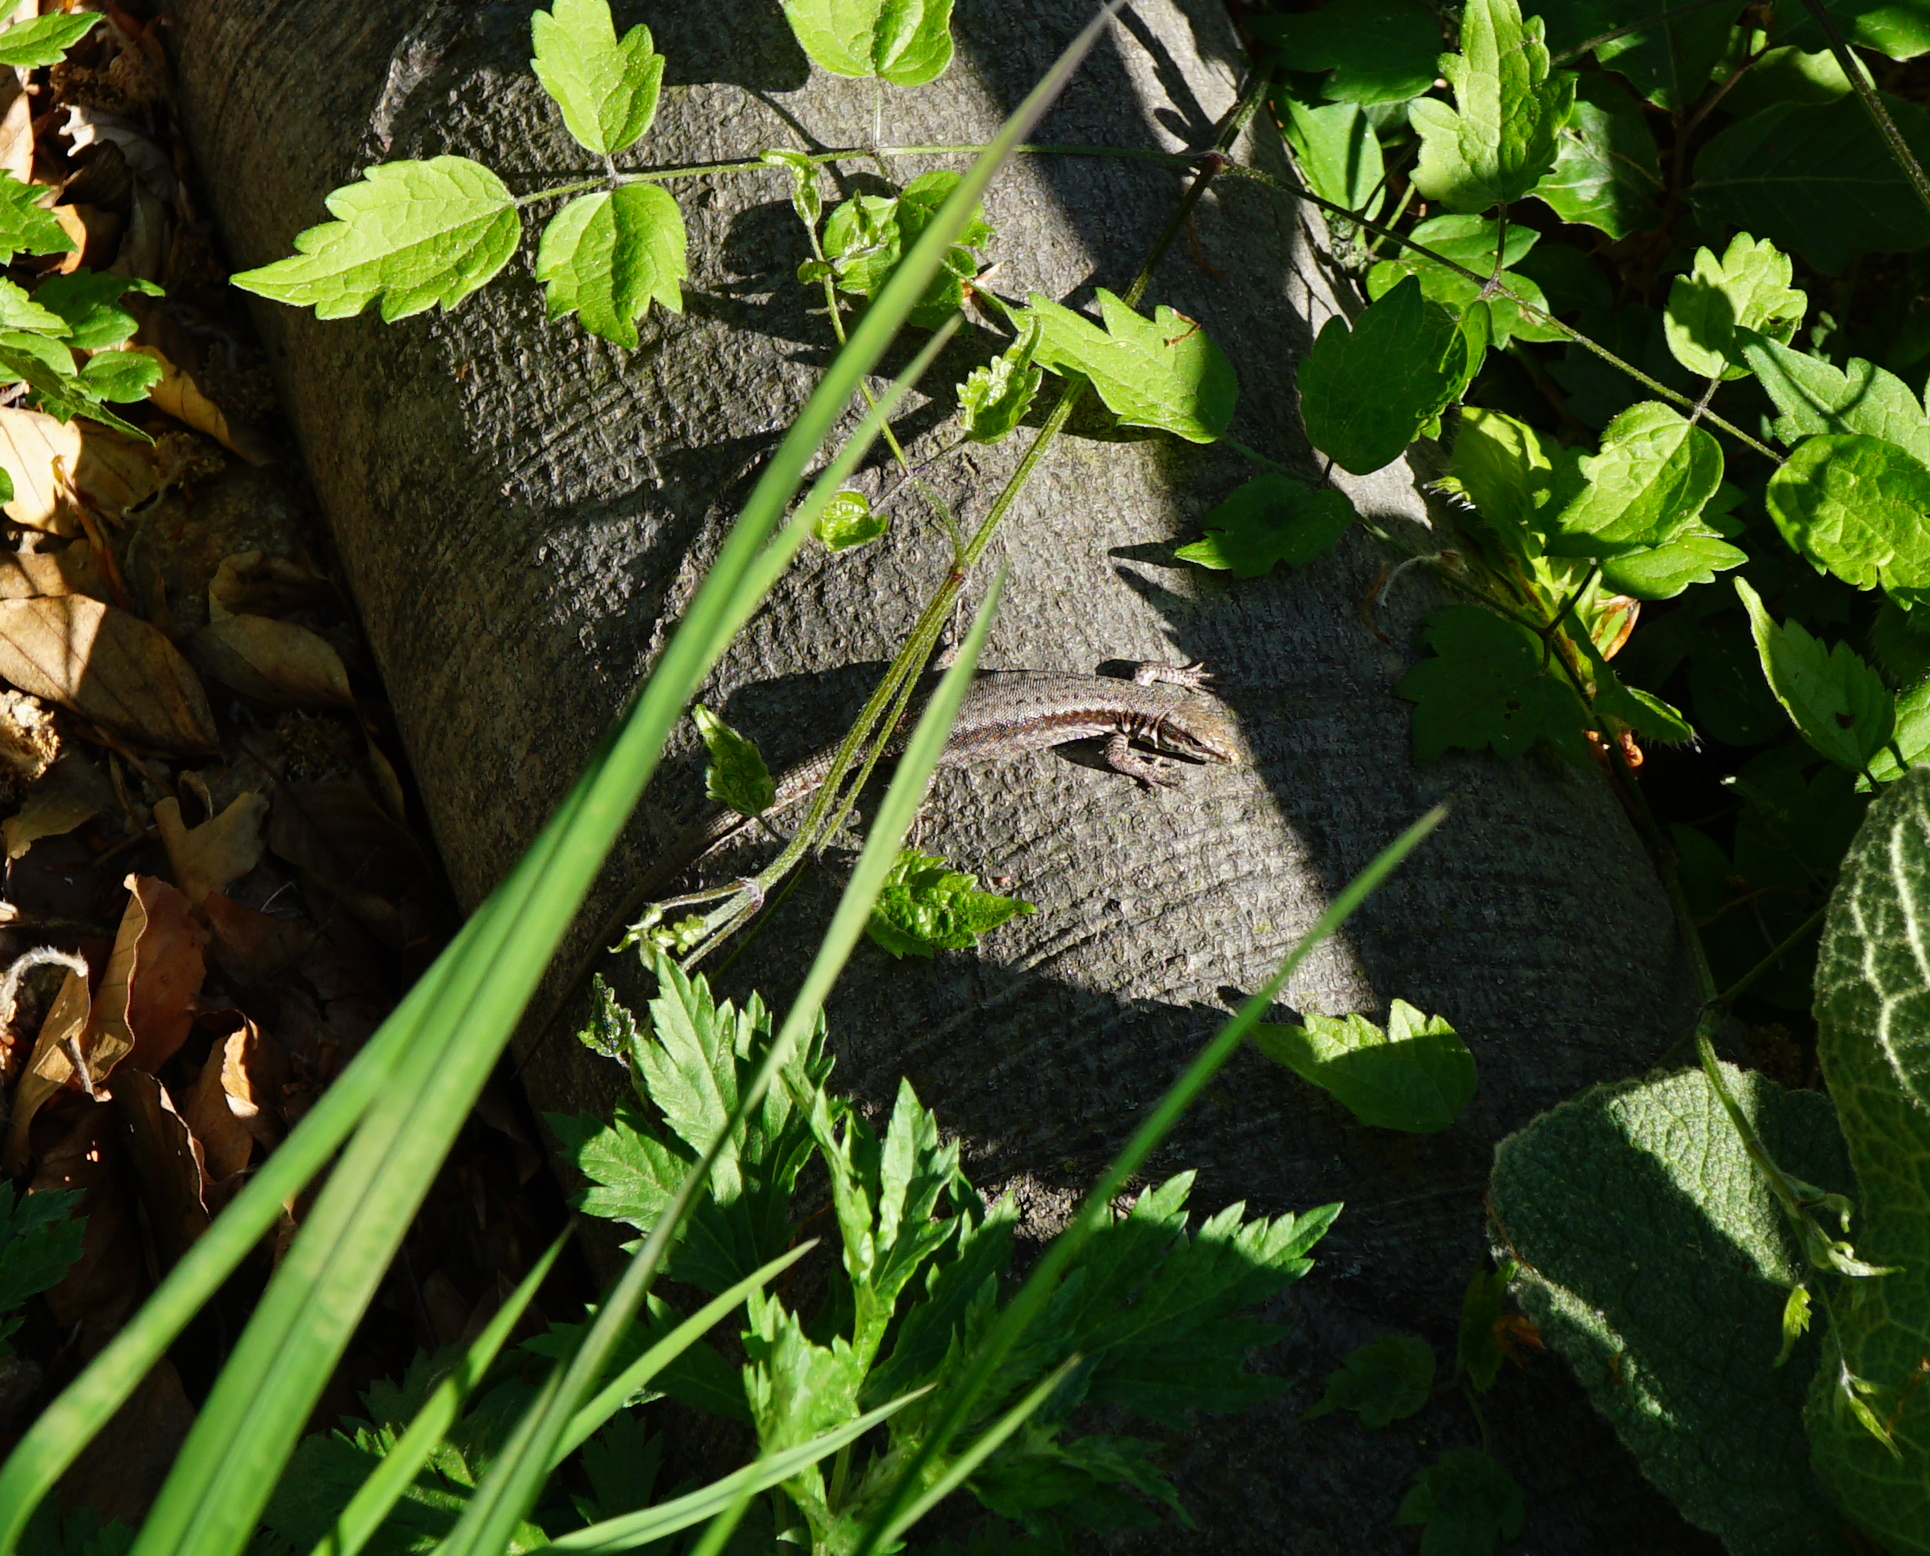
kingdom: Animalia
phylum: Chordata
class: Squamata
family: Lacertidae
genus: Podarcis
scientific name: Podarcis muralis
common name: Common wall lizard
